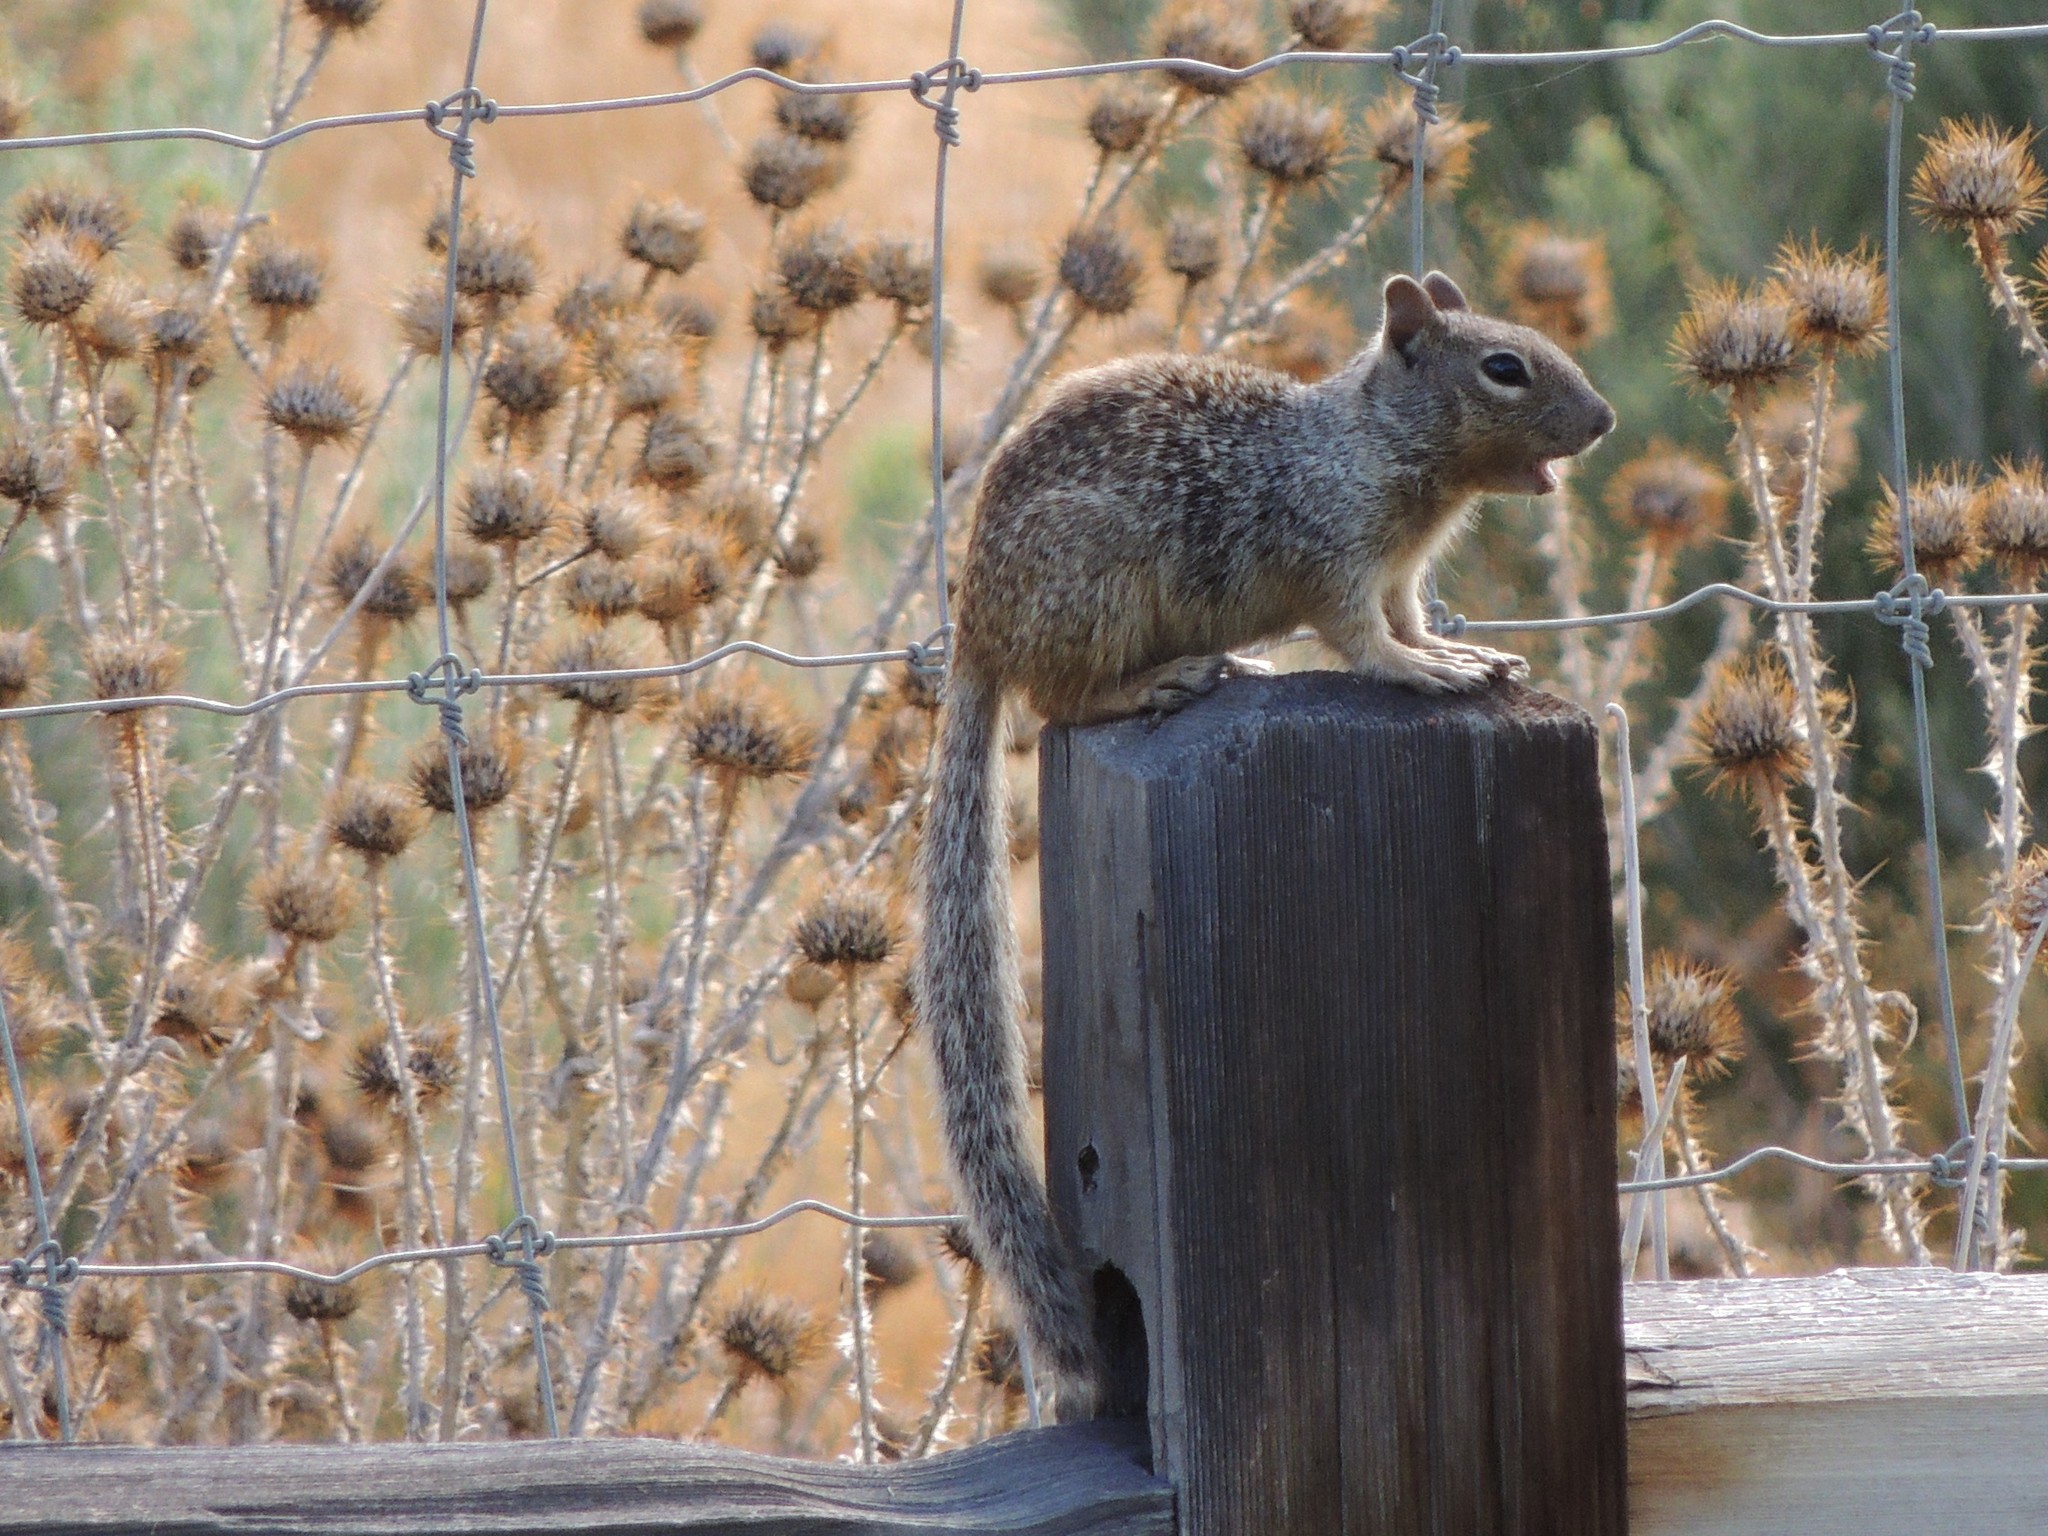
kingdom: Animalia
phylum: Chordata
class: Mammalia
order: Rodentia
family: Sciuridae
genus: Otospermophilus
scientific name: Otospermophilus variegatus
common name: Rock squirrel
